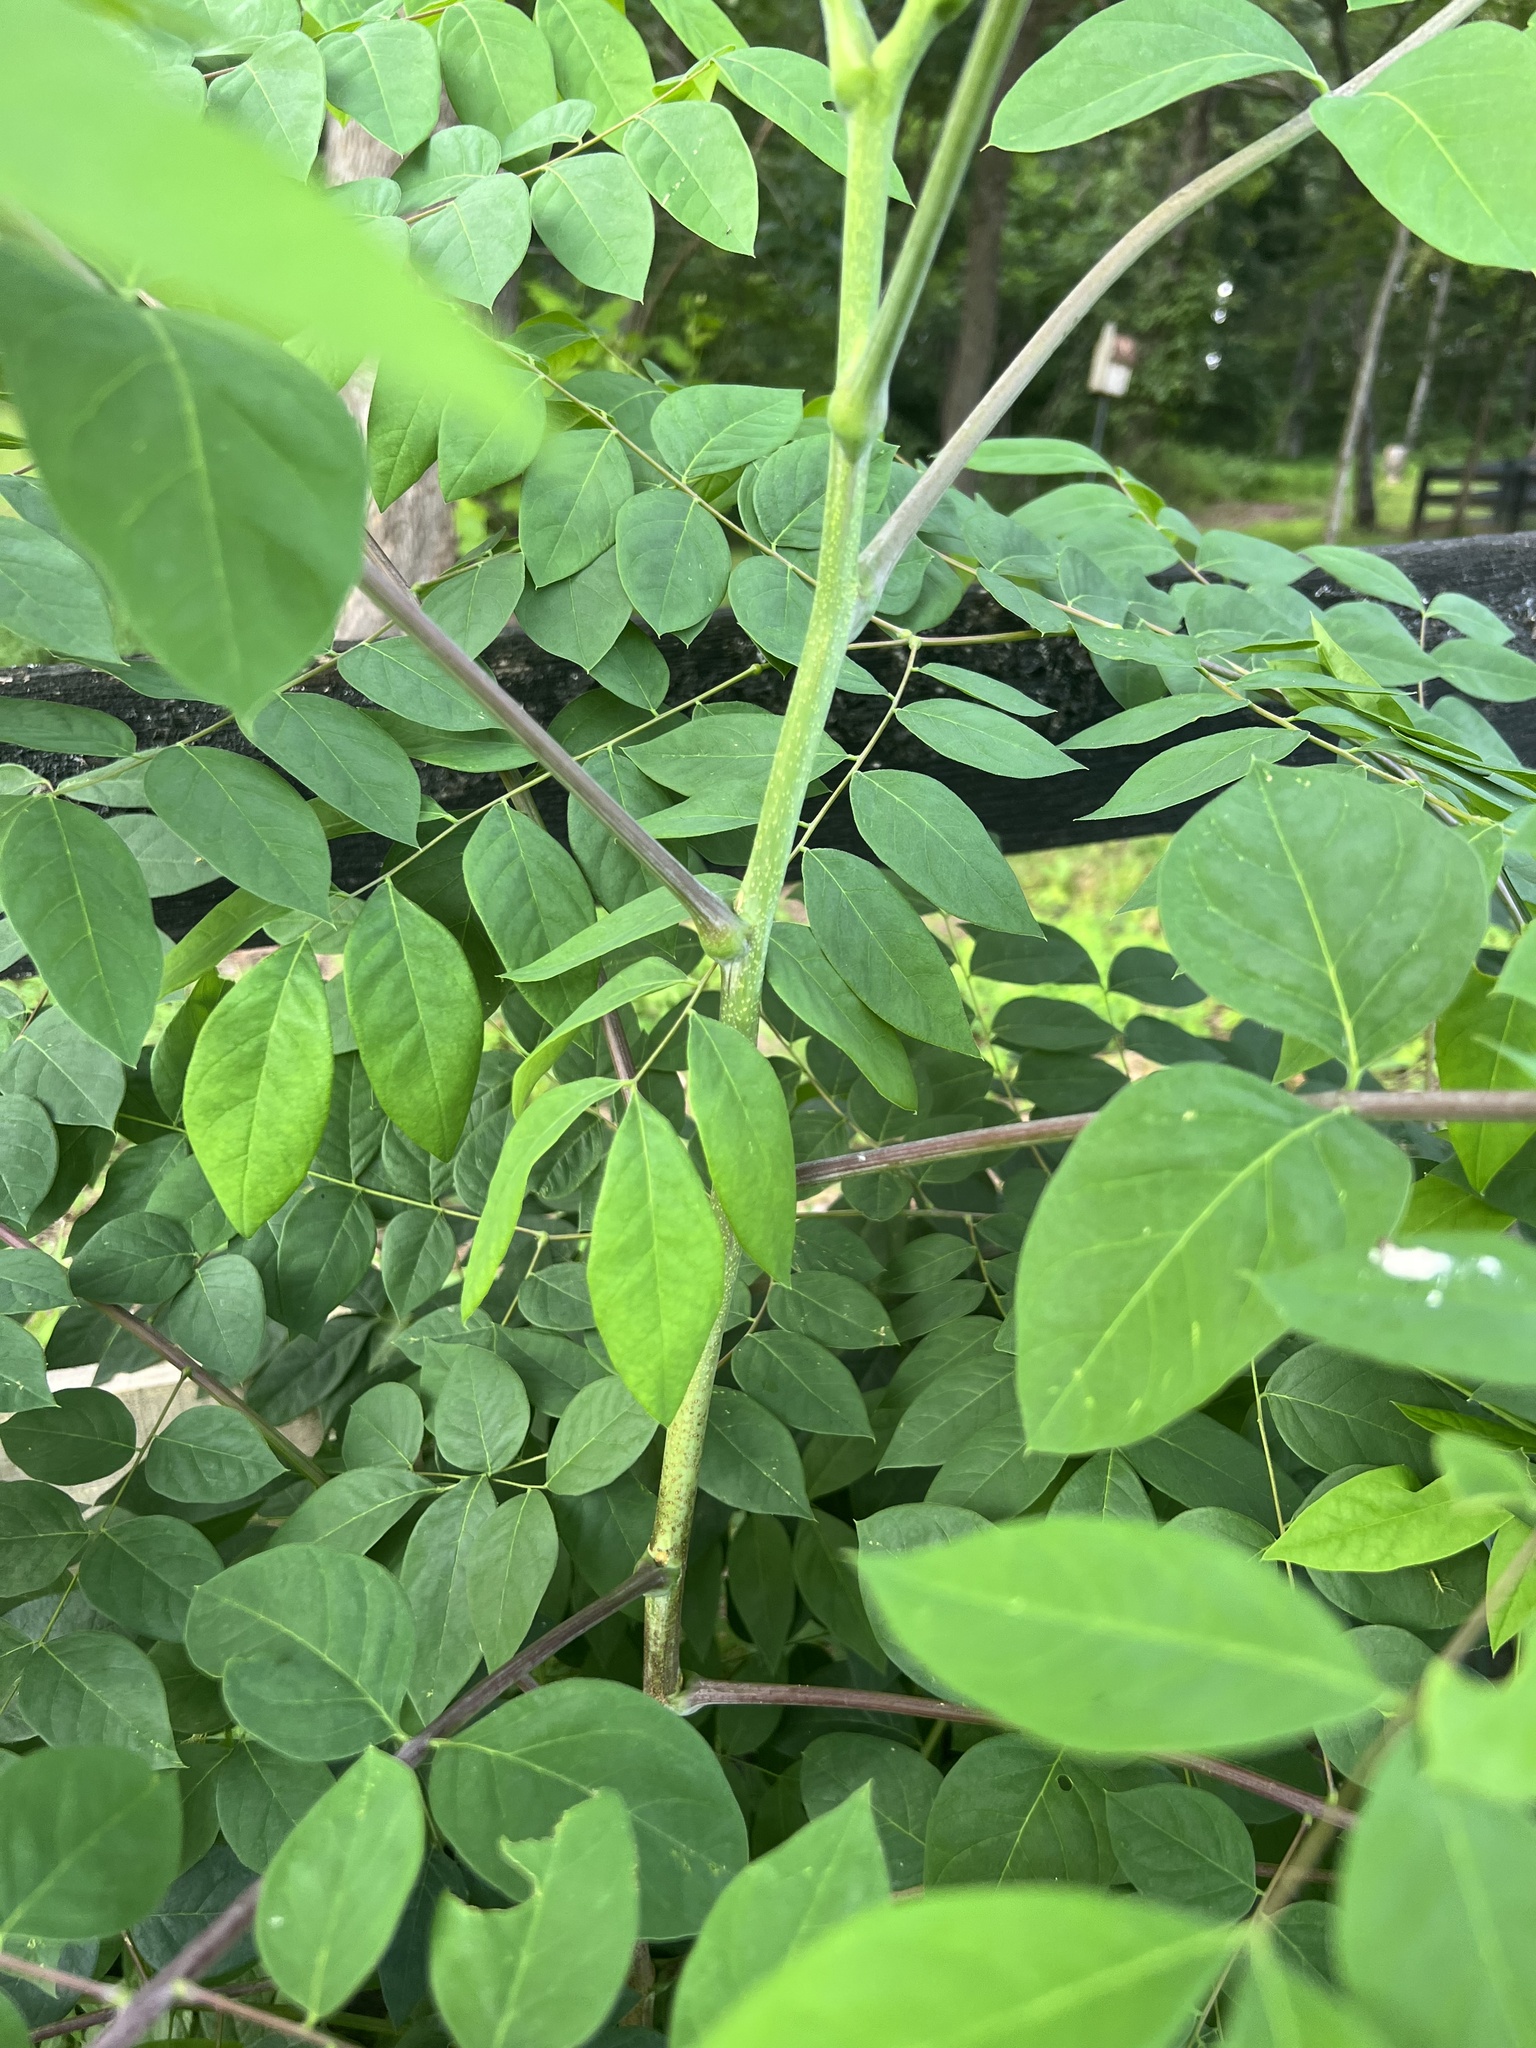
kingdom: Plantae
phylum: Tracheophyta
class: Magnoliopsida
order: Fabales
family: Fabaceae
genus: Gymnocladus
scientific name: Gymnocladus dioicus
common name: Kentucky coffee-tree
